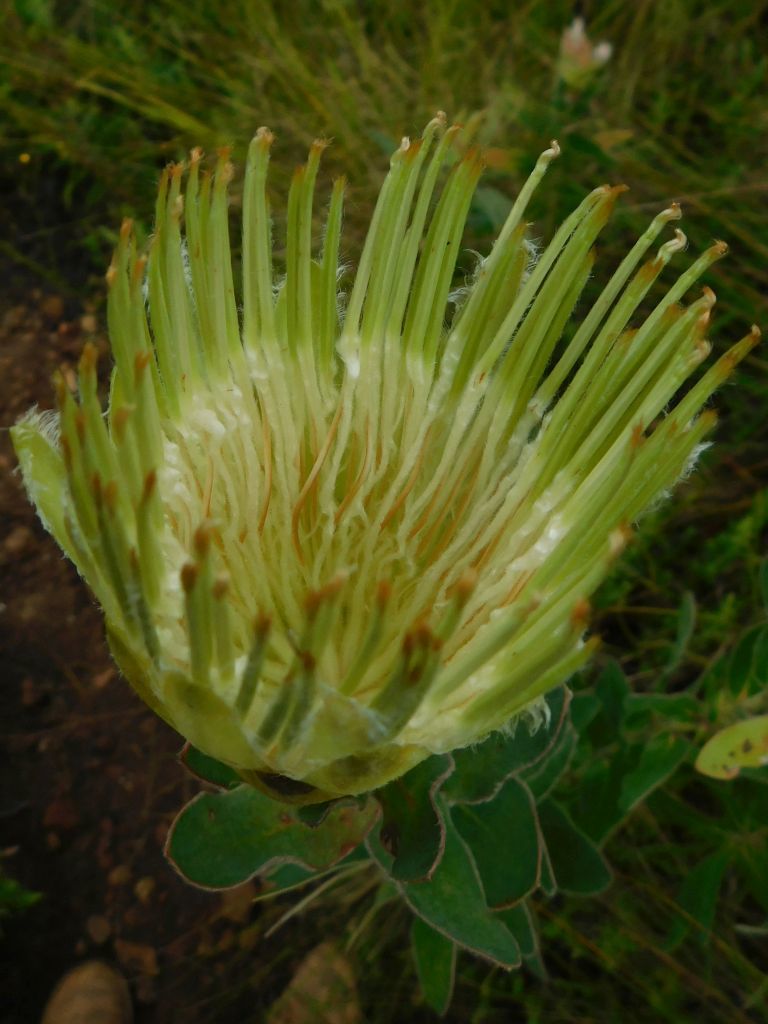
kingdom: Plantae
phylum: Tracheophyta
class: Magnoliopsida
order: Proteales
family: Proteaceae
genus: Protea
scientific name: Protea aurea
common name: Shuttlecock sugarbush
